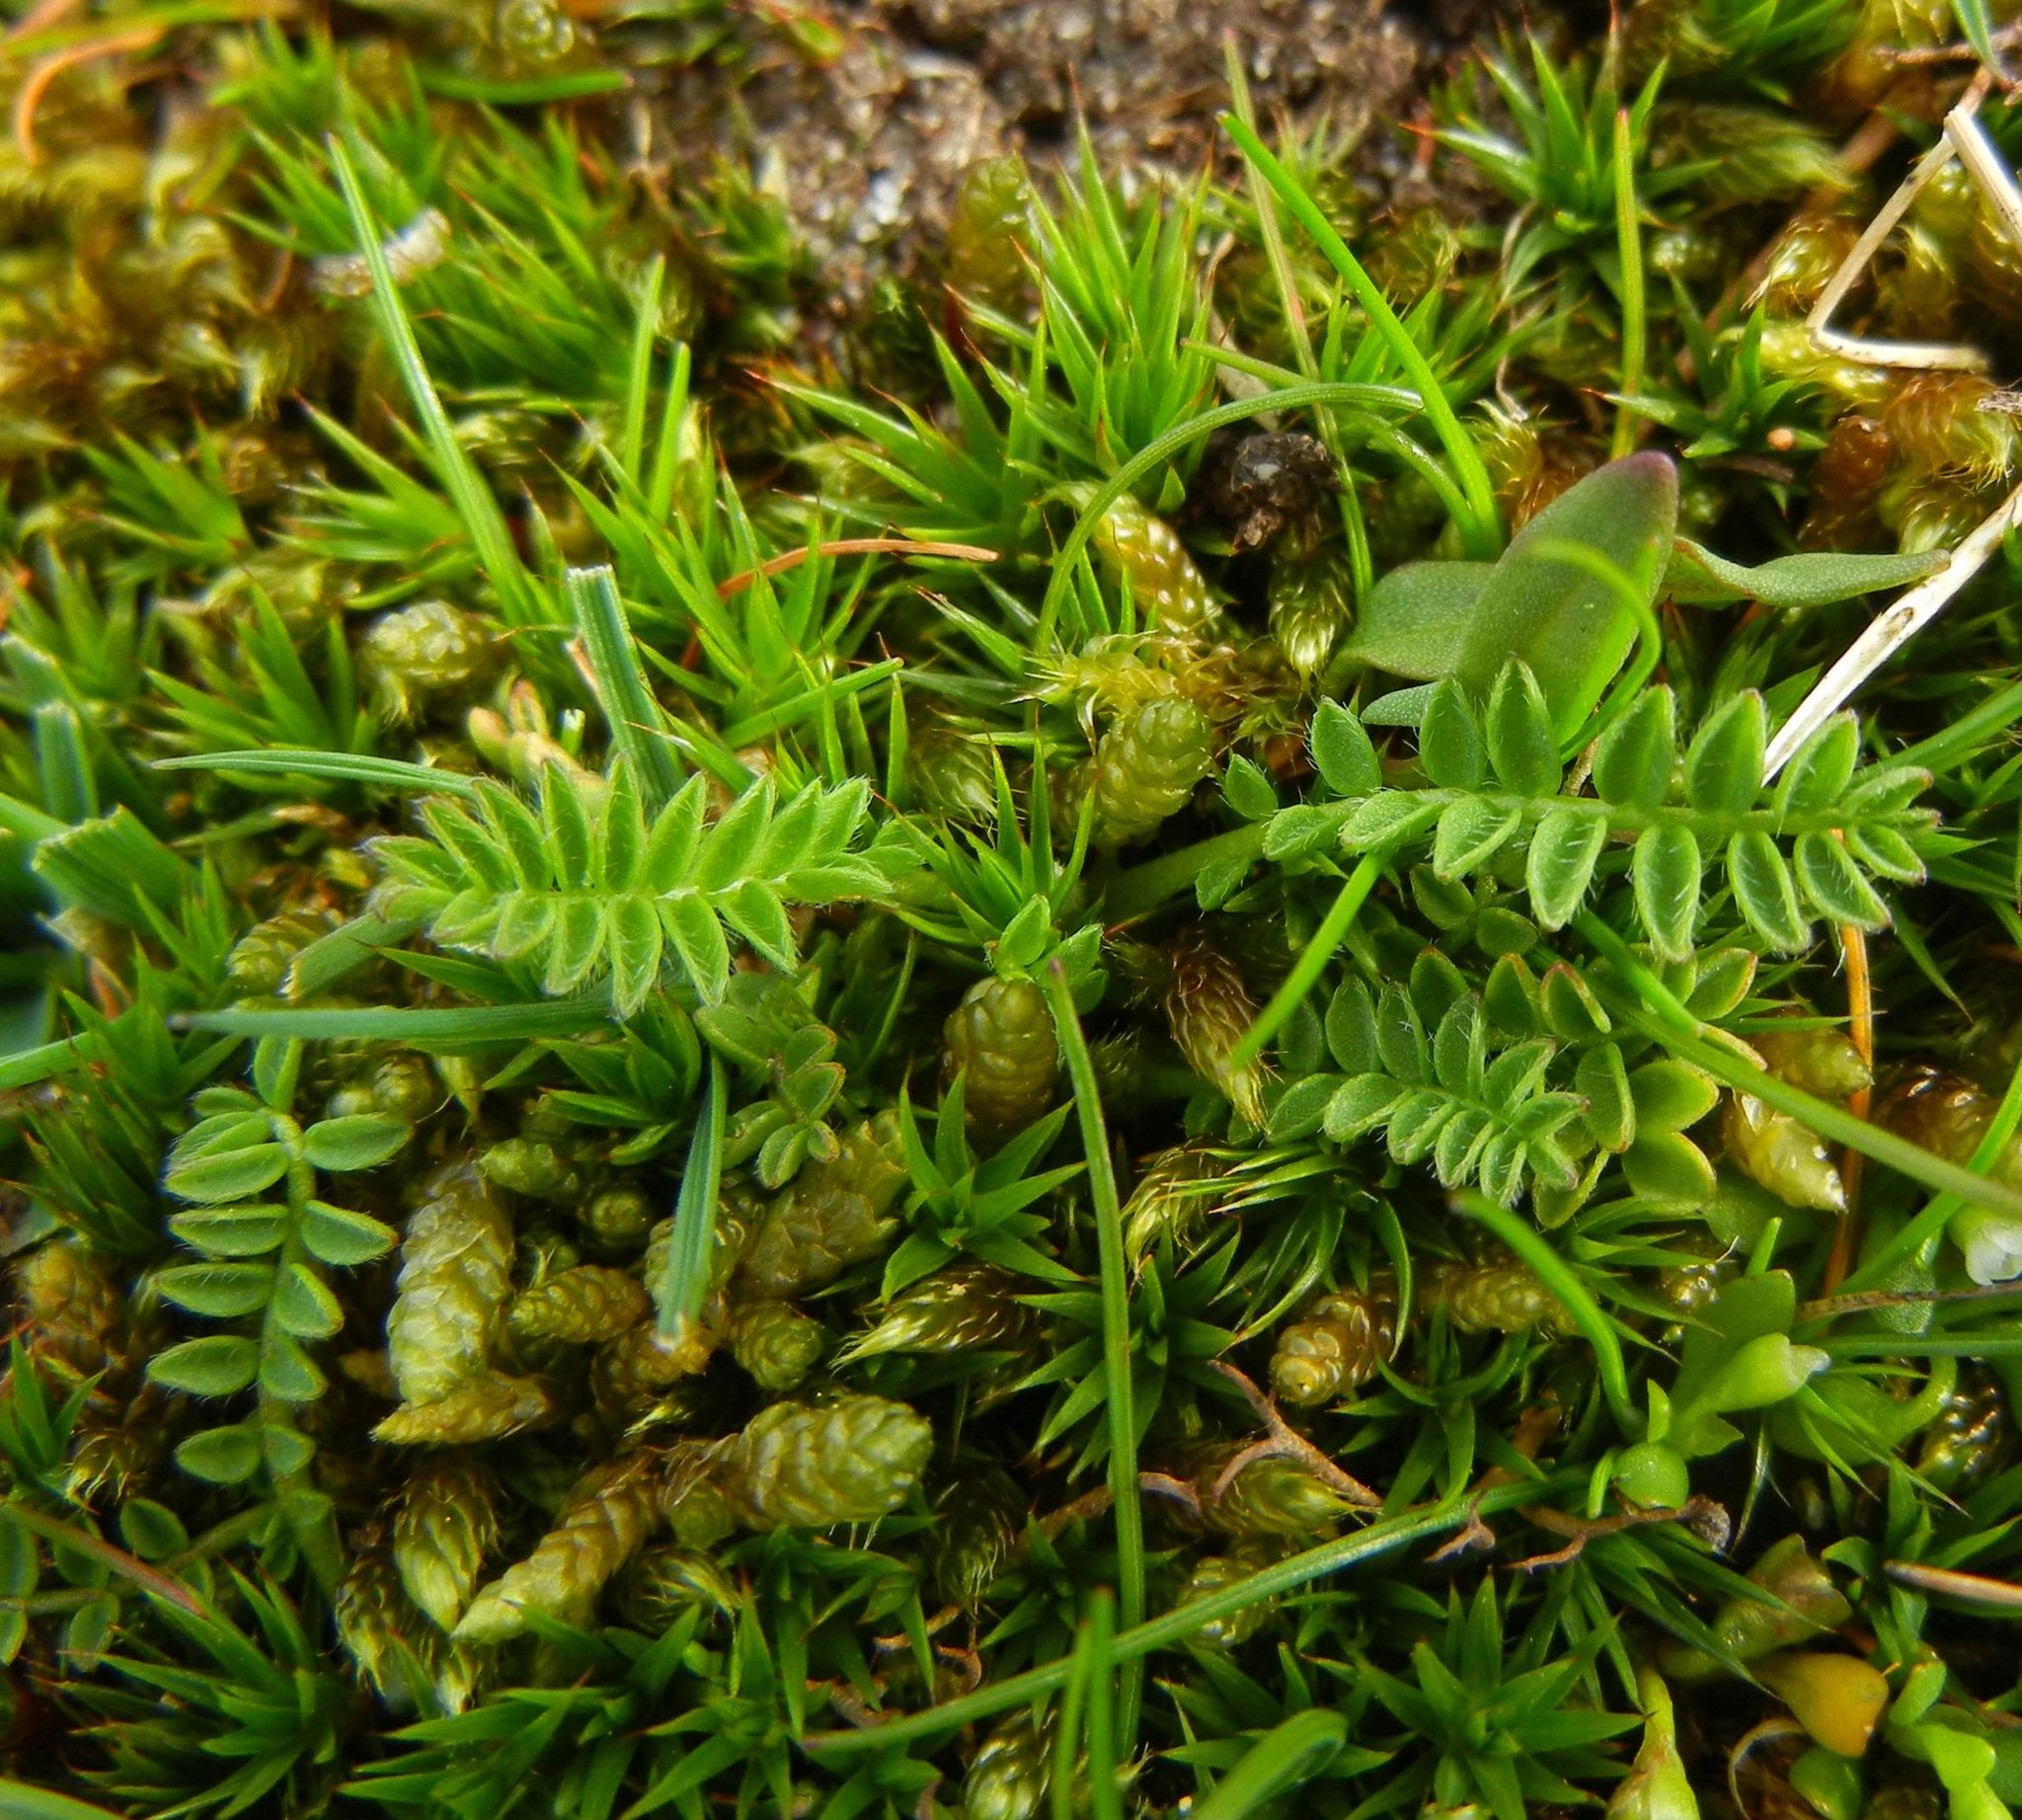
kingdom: Plantae
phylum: Tracheophyta
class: Magnoliopsida
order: Fabales
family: Fabaceae
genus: Ornithopus
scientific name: Ornithopus perpusillus
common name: Bird's-foot
